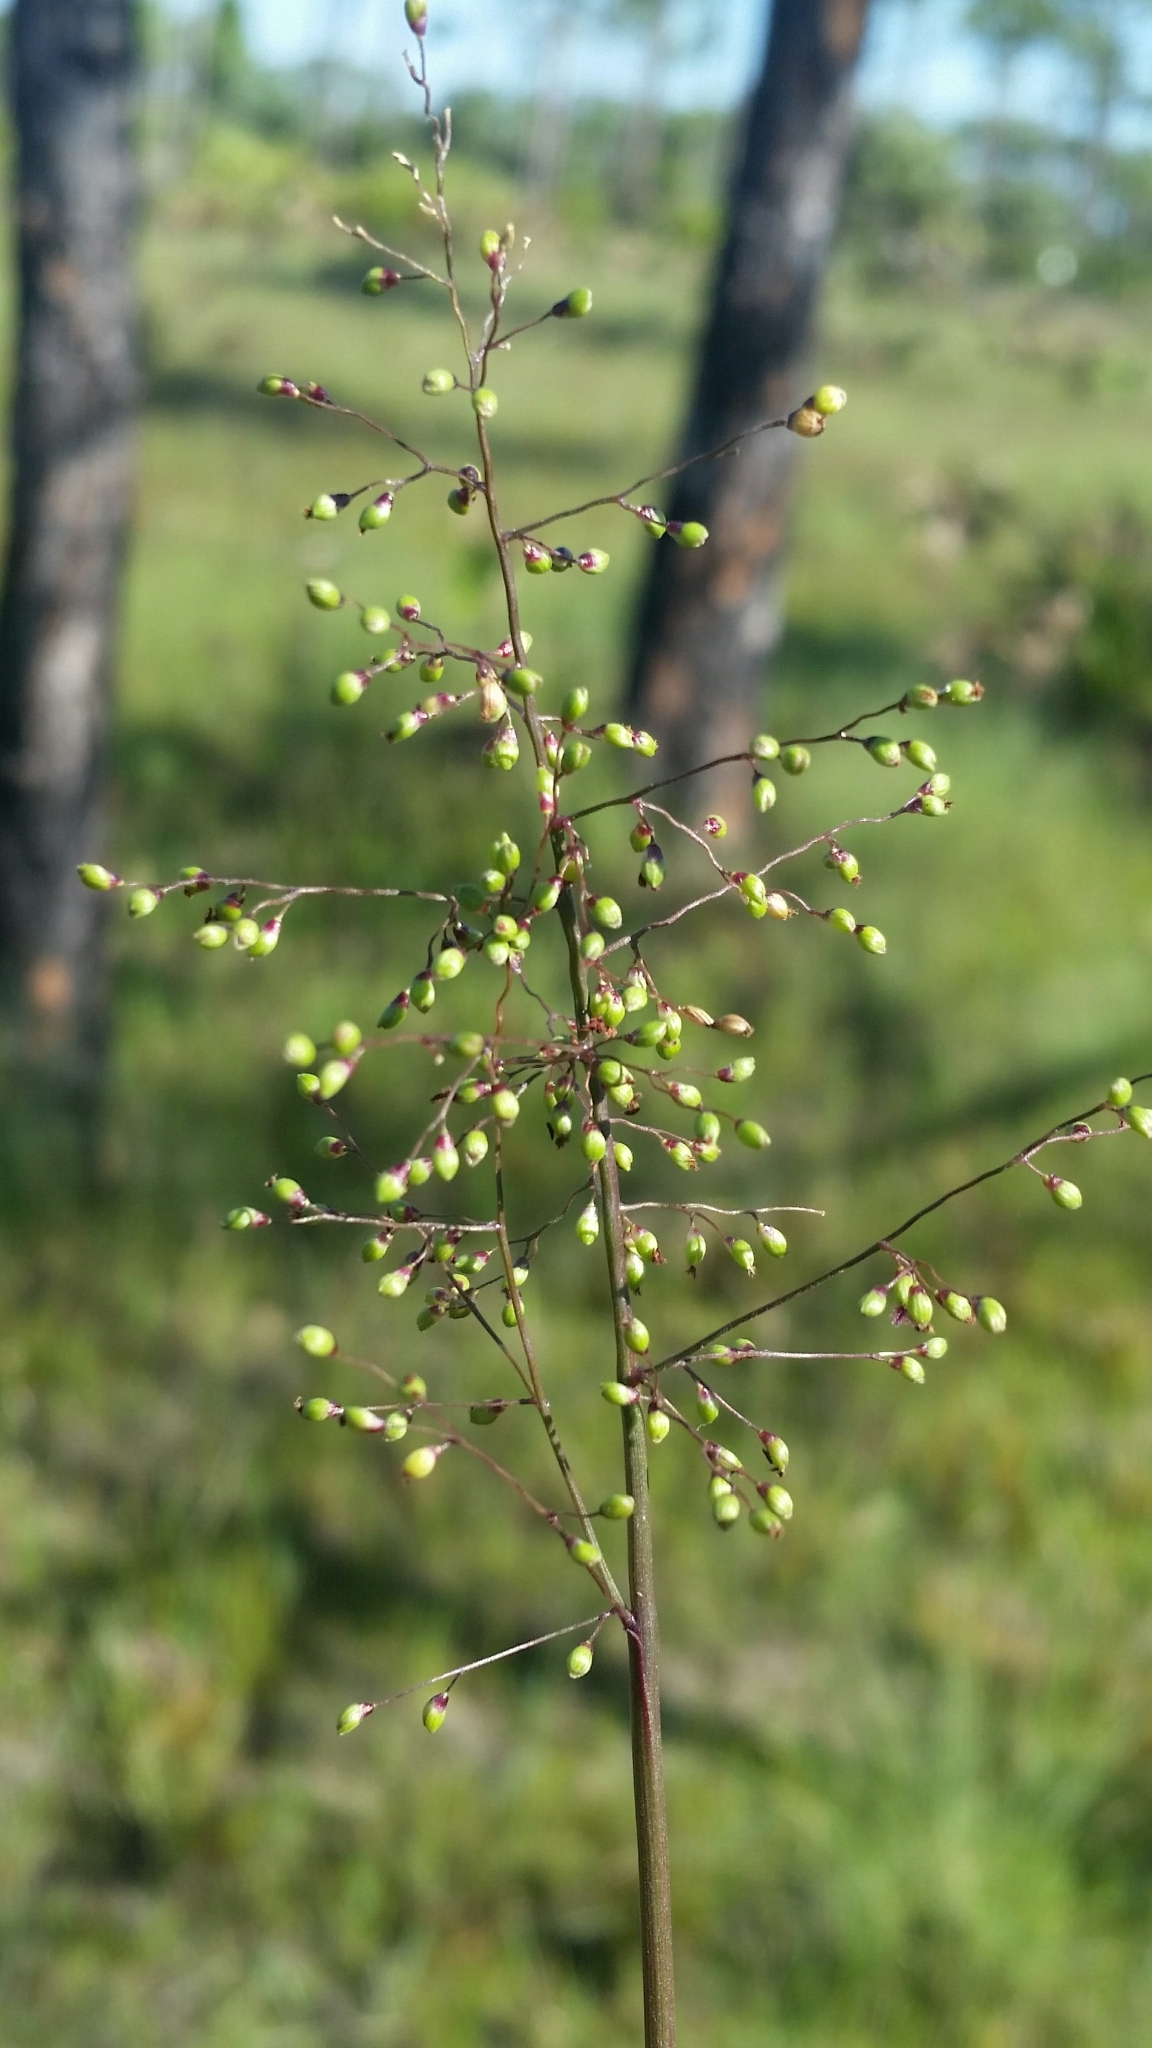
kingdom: Plantae
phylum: Tracheophyta
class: Liliopsida
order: Poales
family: Poaceae
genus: Dichanthelium
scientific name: Dichanthelium webberianum
